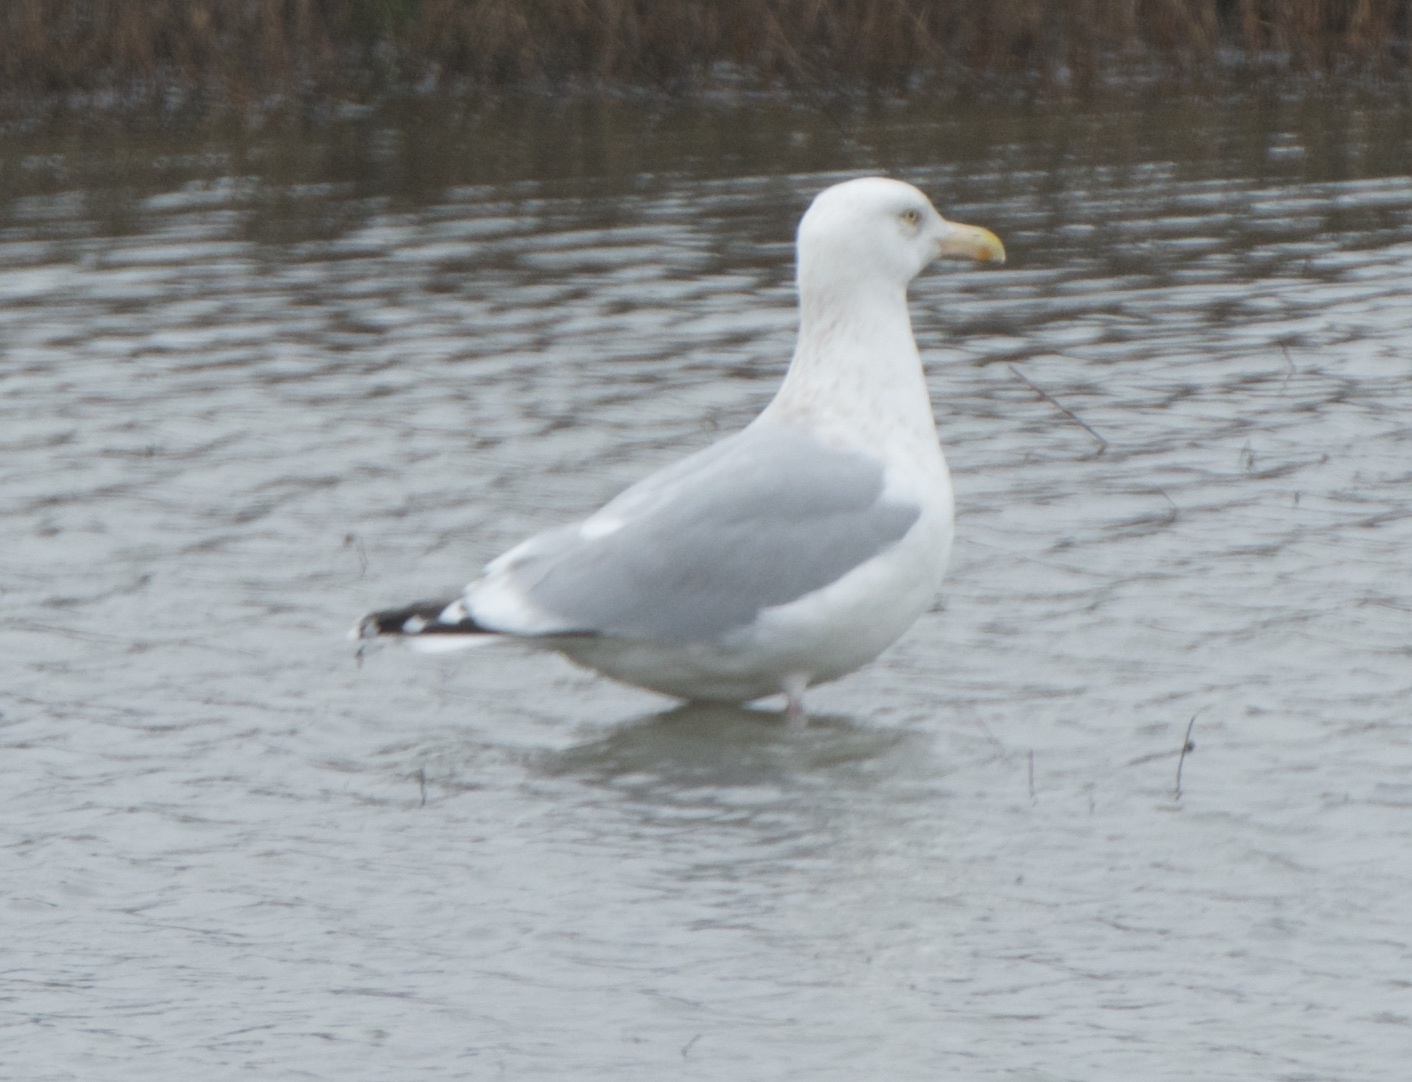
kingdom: Animalia
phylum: Chordata
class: Aves
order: Charadriiformes
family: Laridae
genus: Larus
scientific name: Larus argentatus
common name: Herring gull
